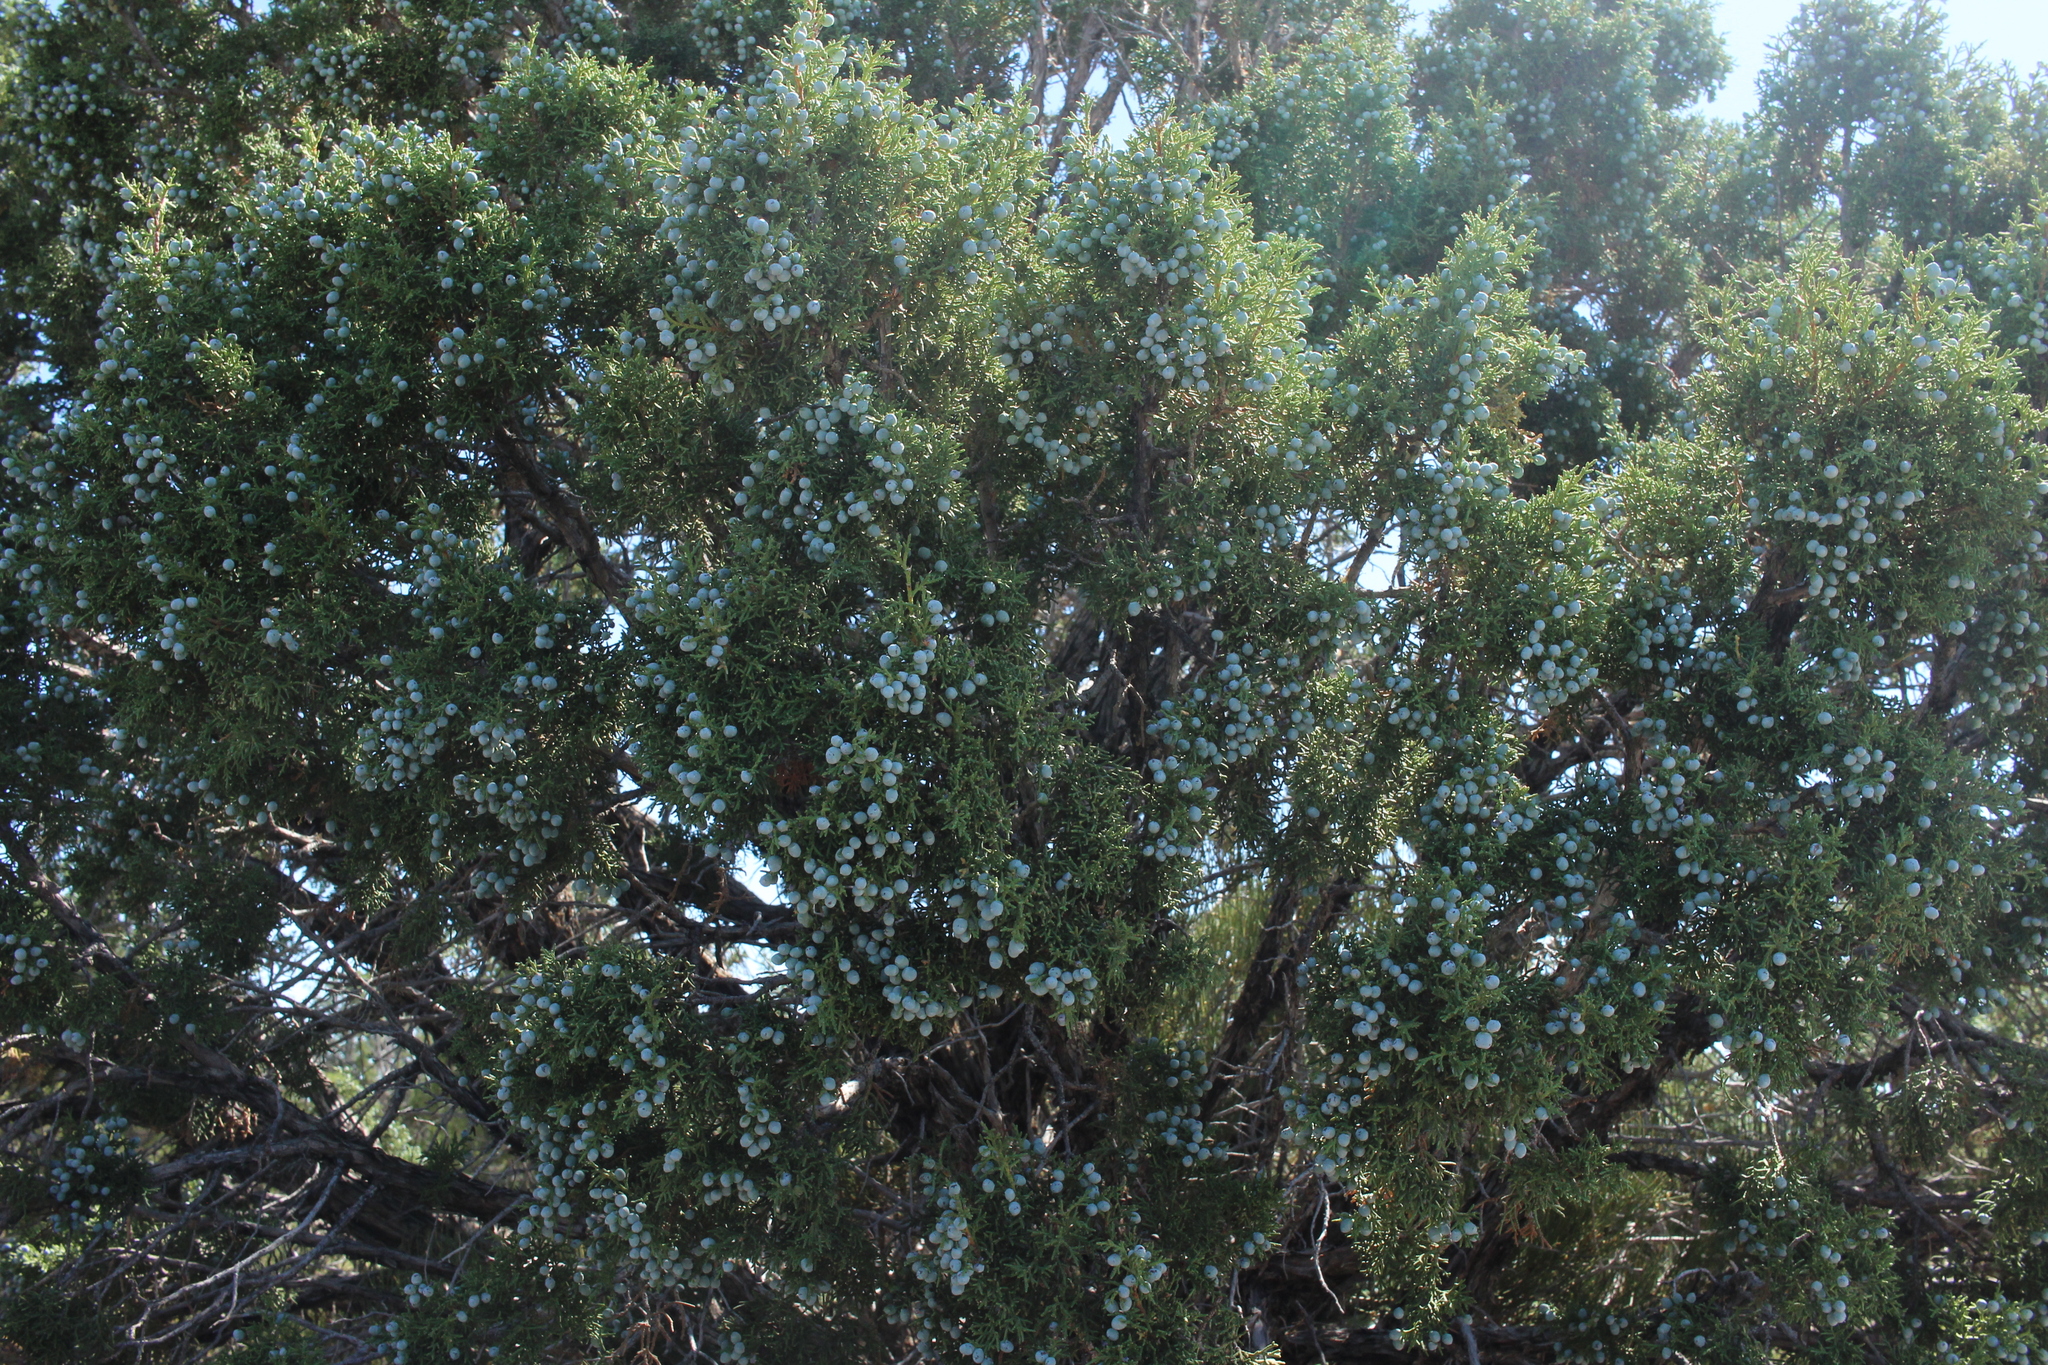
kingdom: Plantae
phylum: Tracheophyta
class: Pinopsida
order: Pinales
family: Cupressaceae
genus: Juniperus
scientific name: Juniperus osteosperma
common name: Utah juniper
